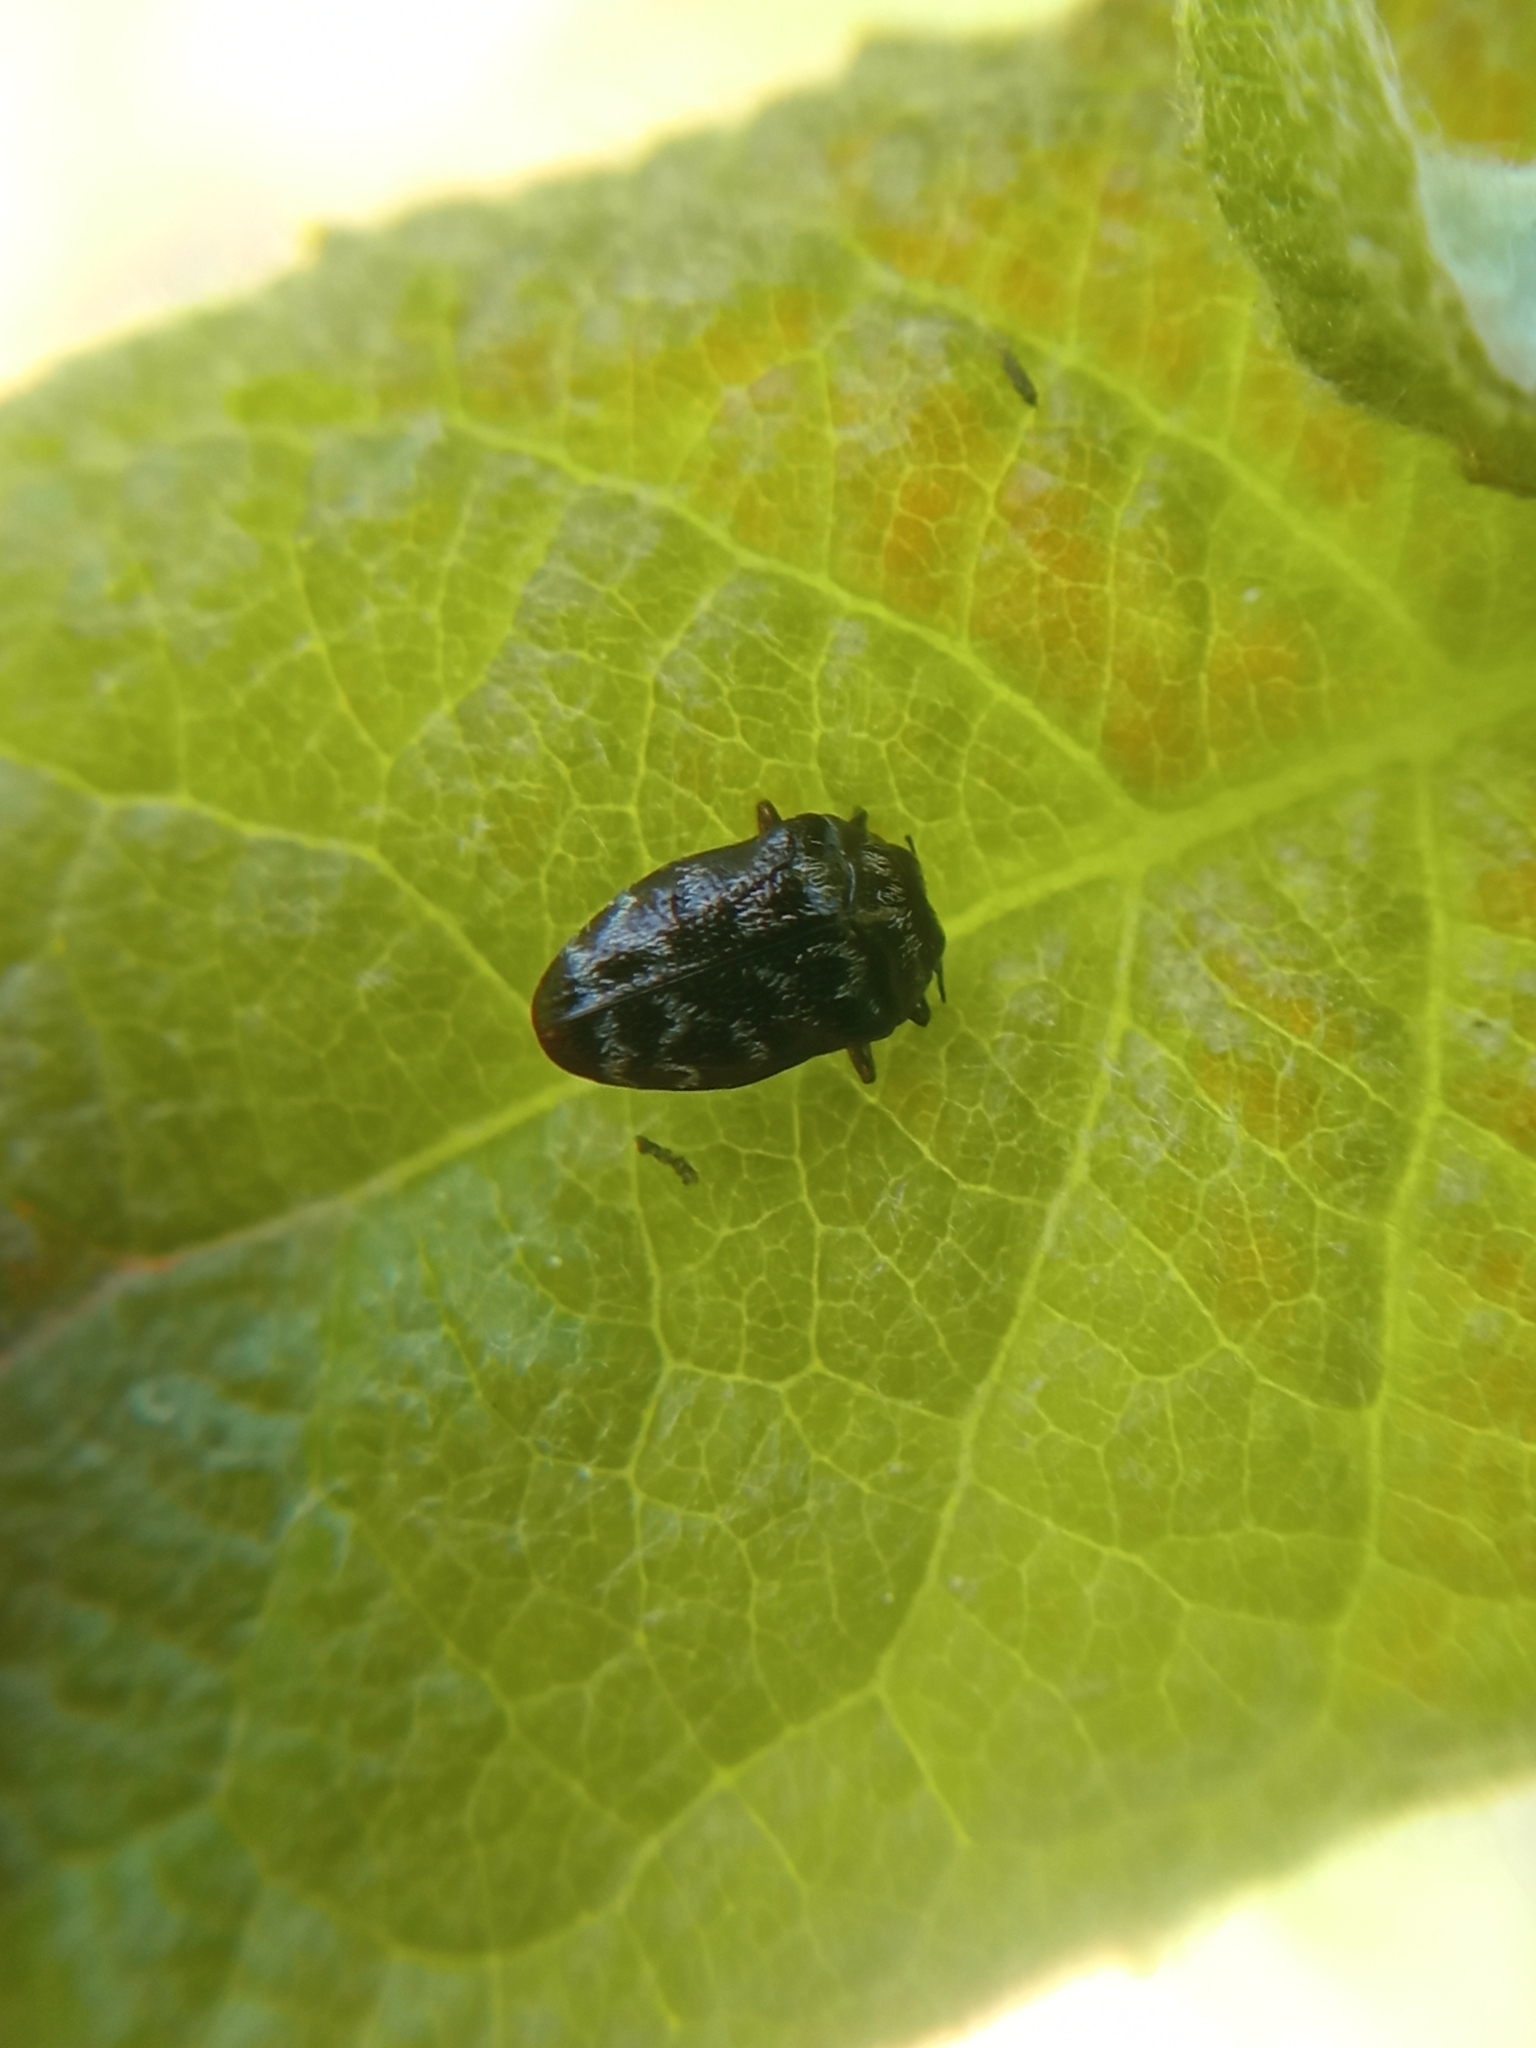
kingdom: Animalia
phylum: Arthropoda
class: Insecta
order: Coleoptera
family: Buprestidae
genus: Trachys
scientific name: Trachys minutus
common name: Metallic wood-boring beetle
